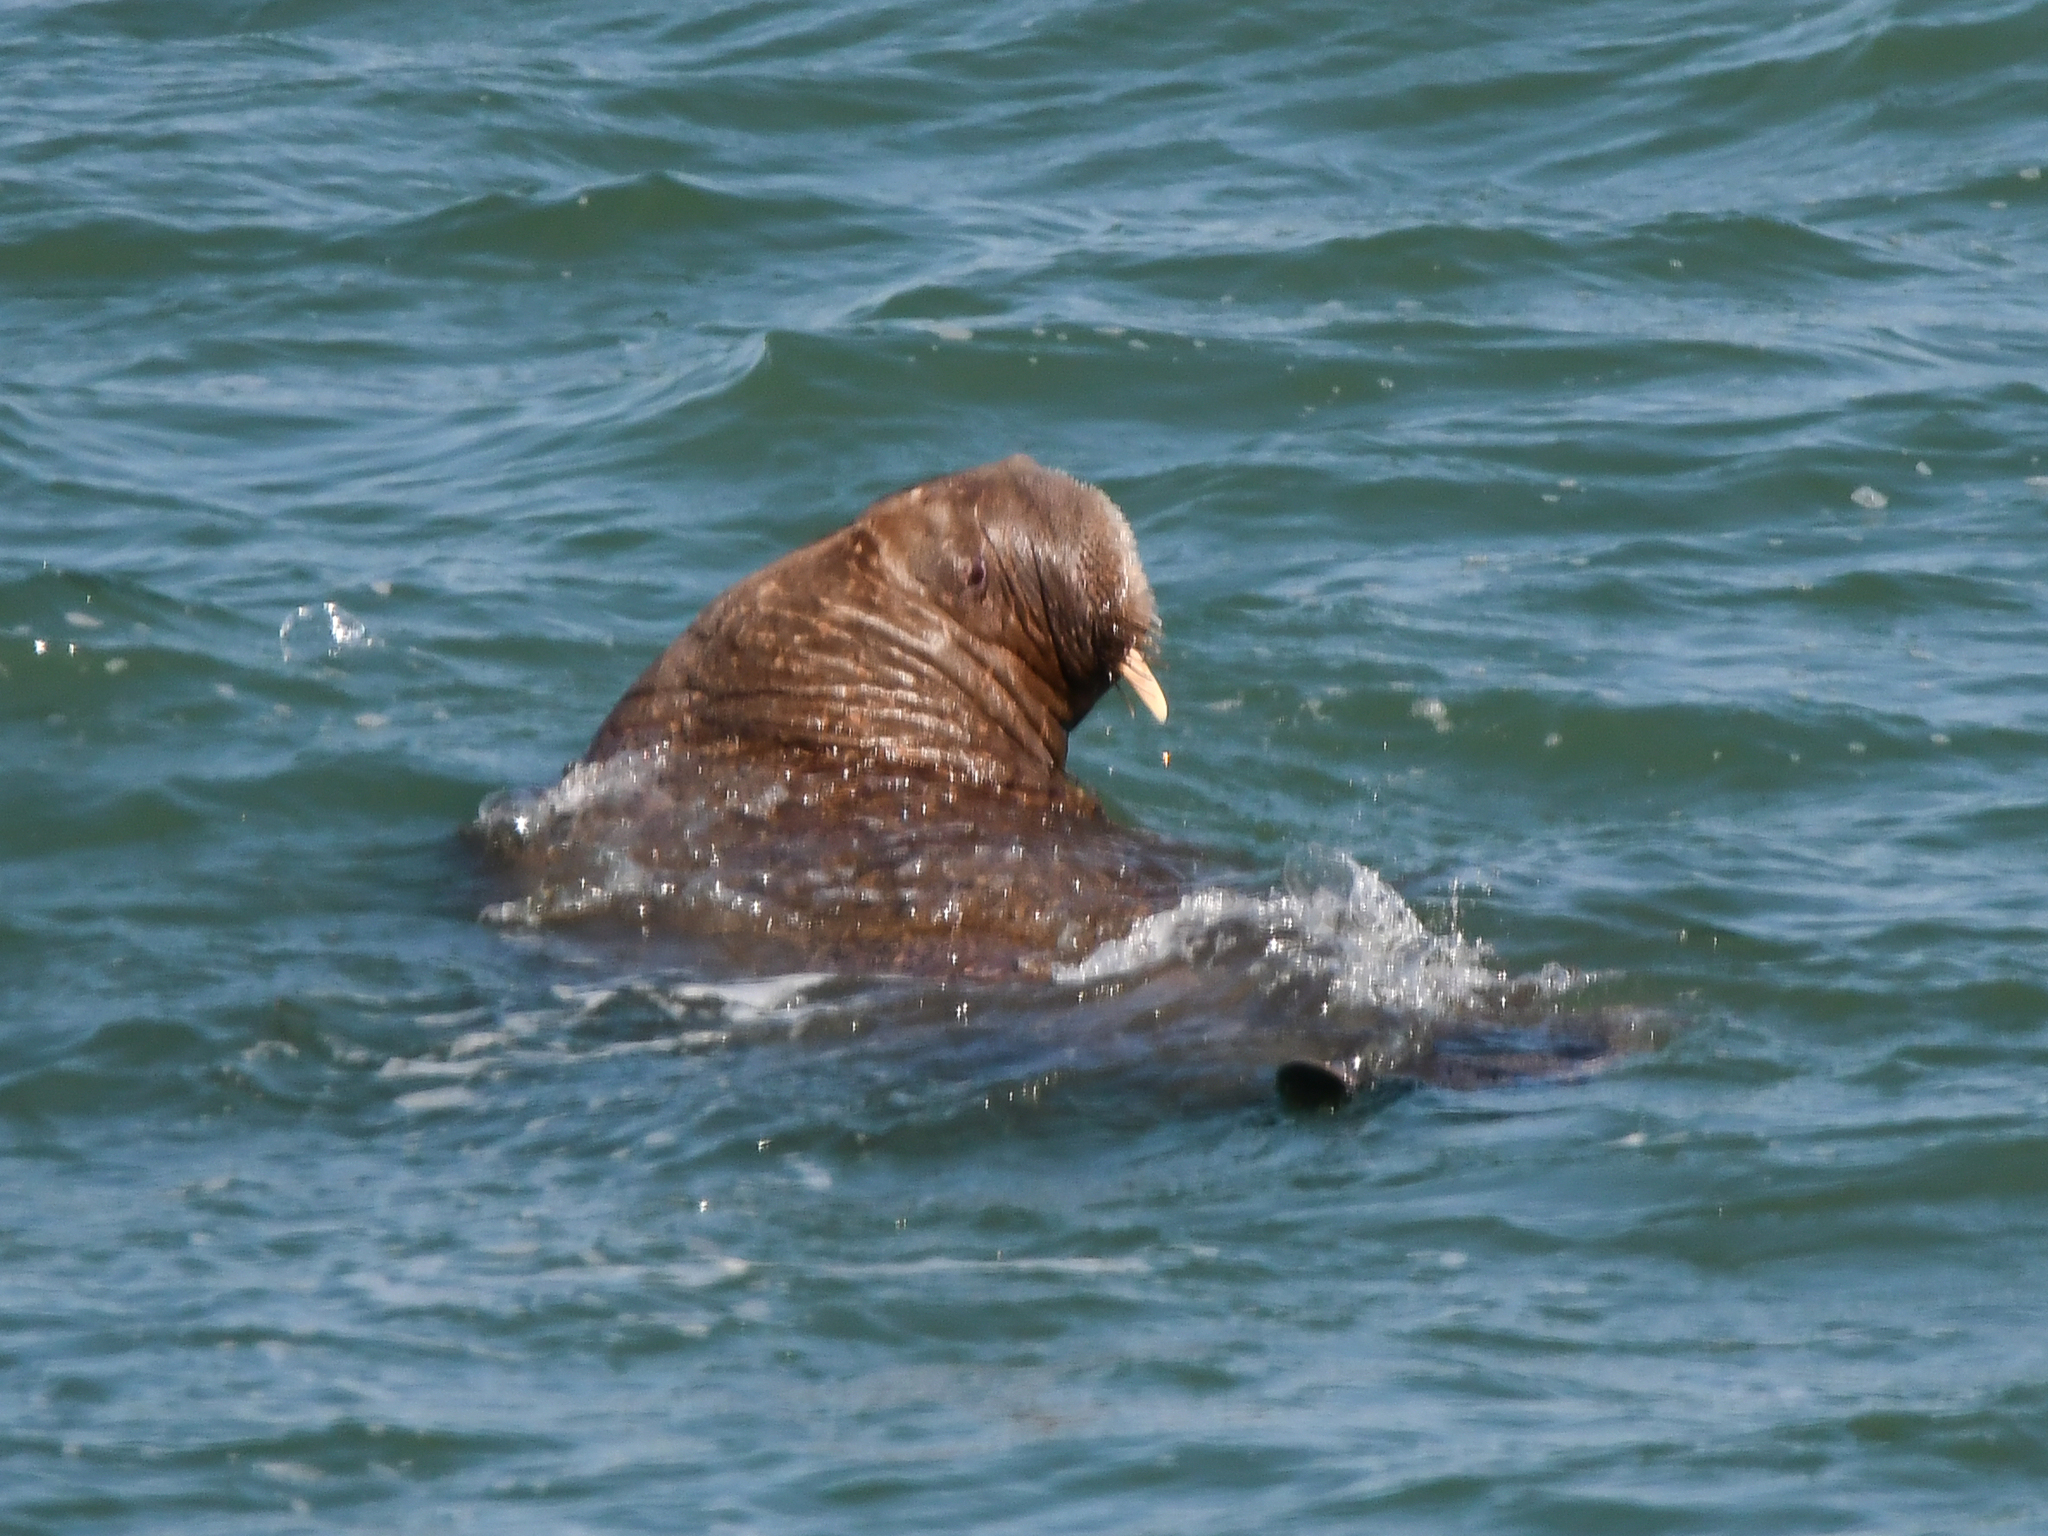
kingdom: Animalia
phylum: Chordata
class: Mammalia
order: Carnivora
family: Odobenidae
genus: Odobenus
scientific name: Odobenus rosmarus
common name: Walrus
